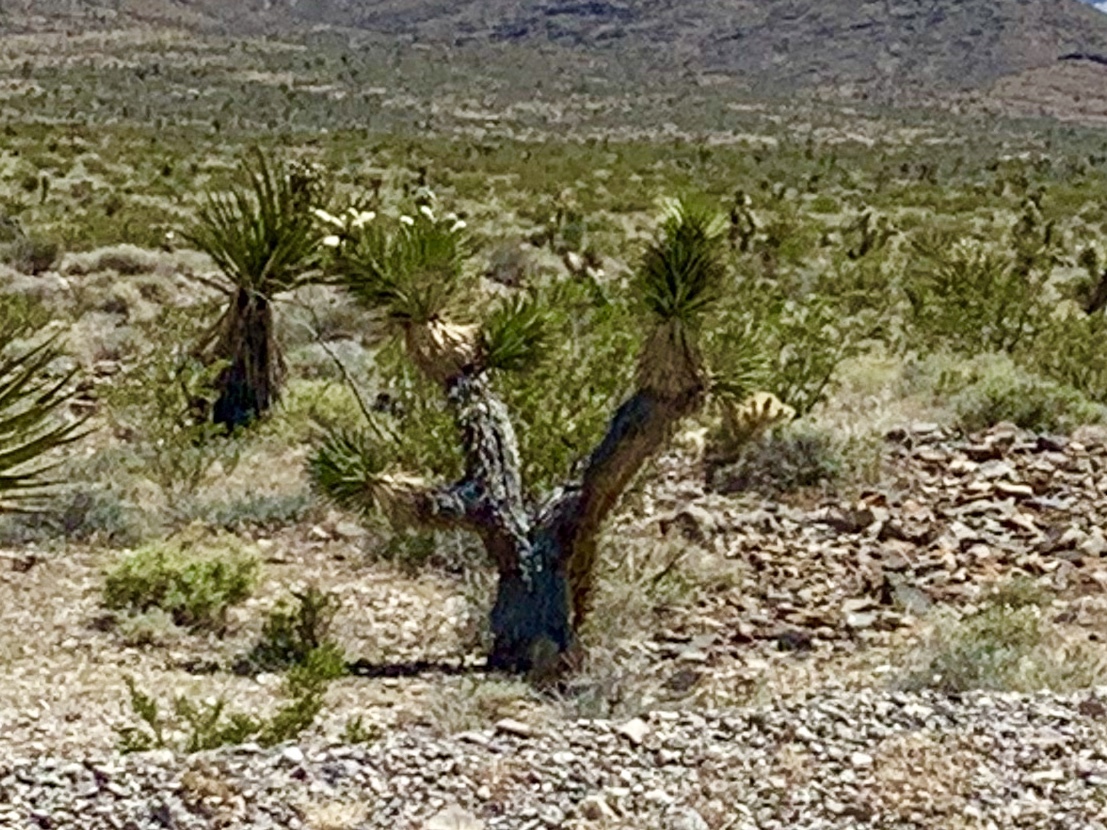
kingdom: Plantae
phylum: Tracheophyta
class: Liliopsida
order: Asparagales
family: Asparagaceae
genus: Yucca
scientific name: Yucca brevifolia
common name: Joshua tree
